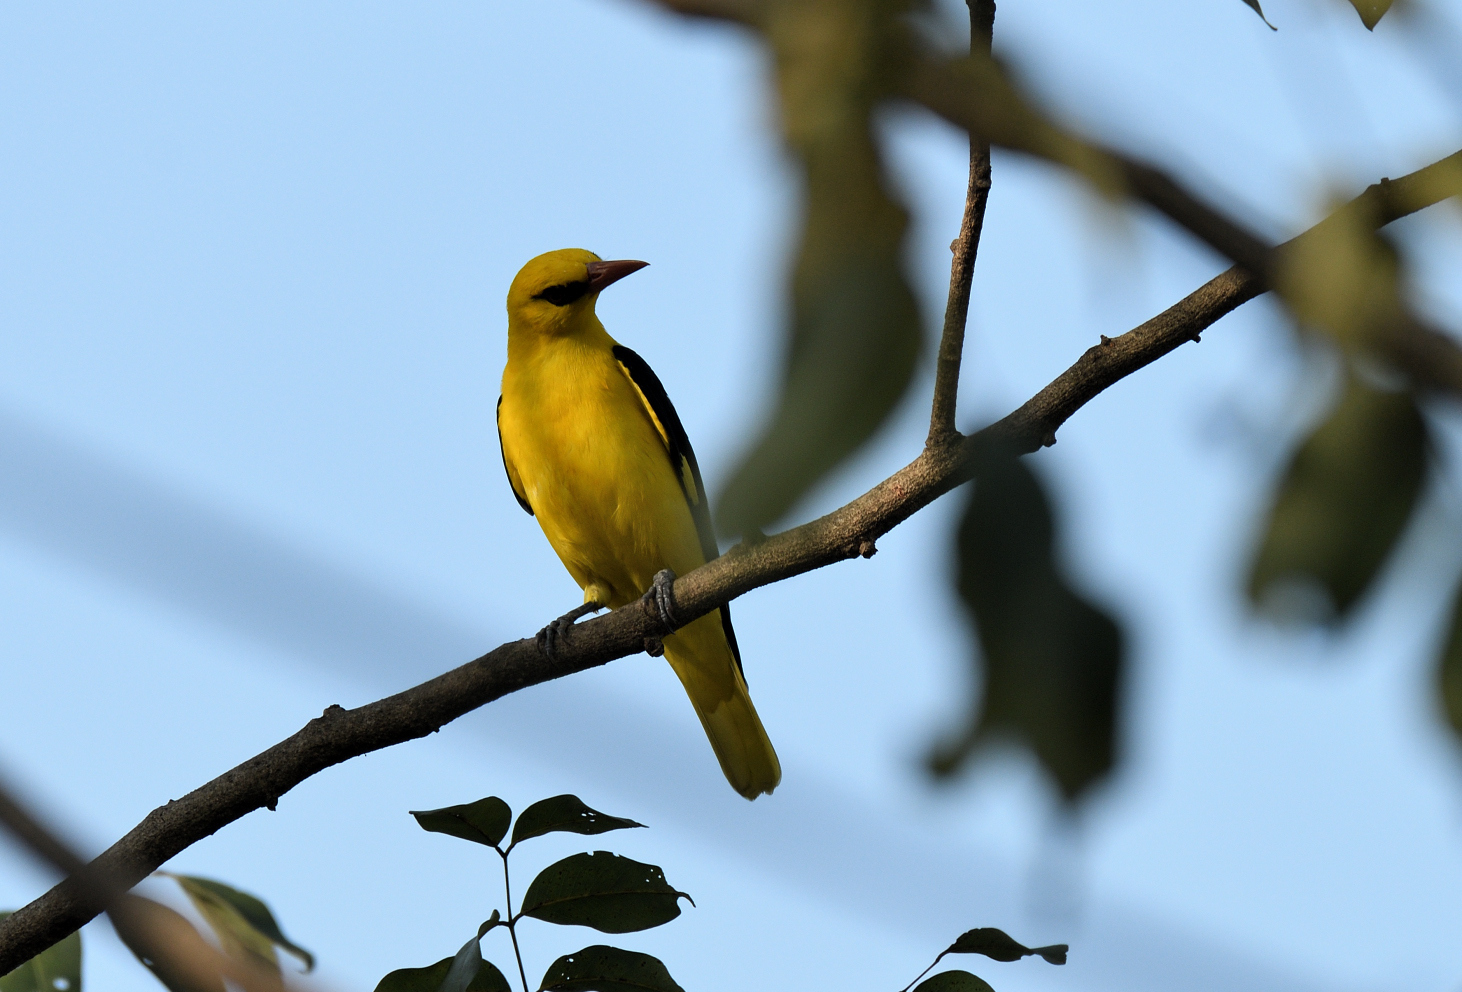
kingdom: Animalia
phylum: Chordata
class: Aves
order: Passeriformes
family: Oriolidae
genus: Oriolus
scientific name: Oriolus kundoo
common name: Indian golden oriole
